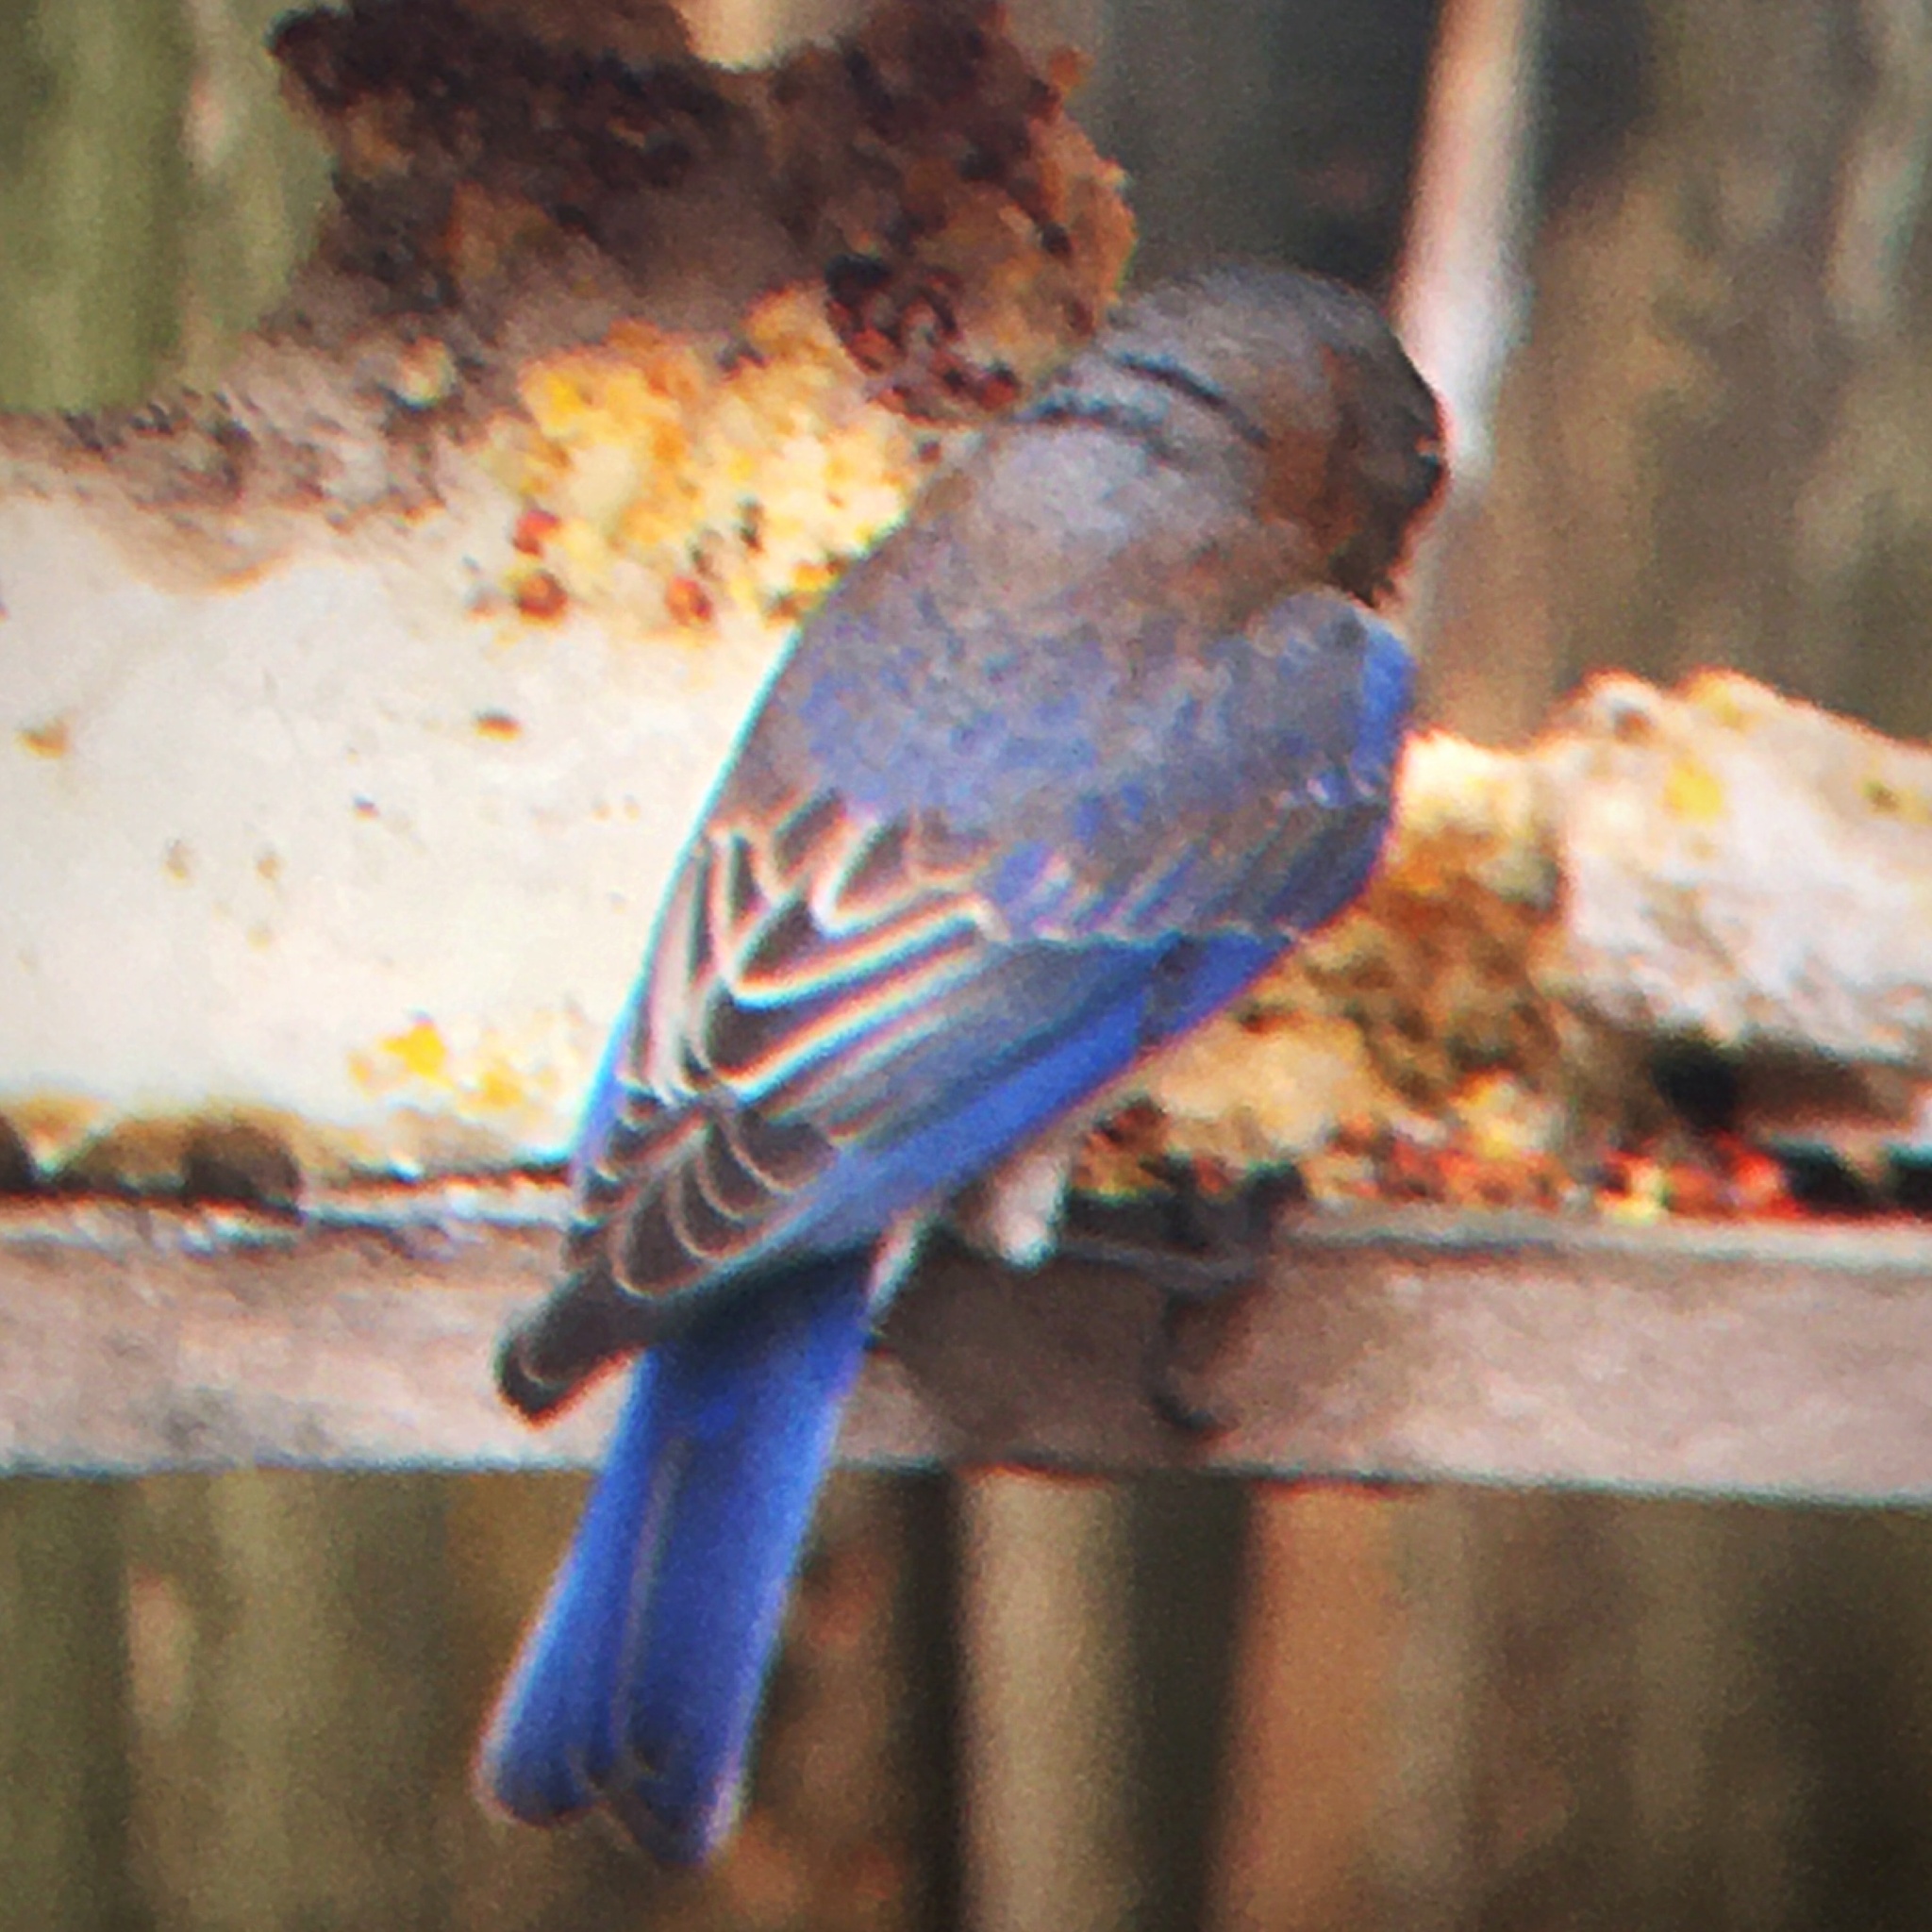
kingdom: Animalia
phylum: Chordata
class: Aves
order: Passeriformes
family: Turdidae
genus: Sialia
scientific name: Sialia sialis
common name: Eastern bluebird
